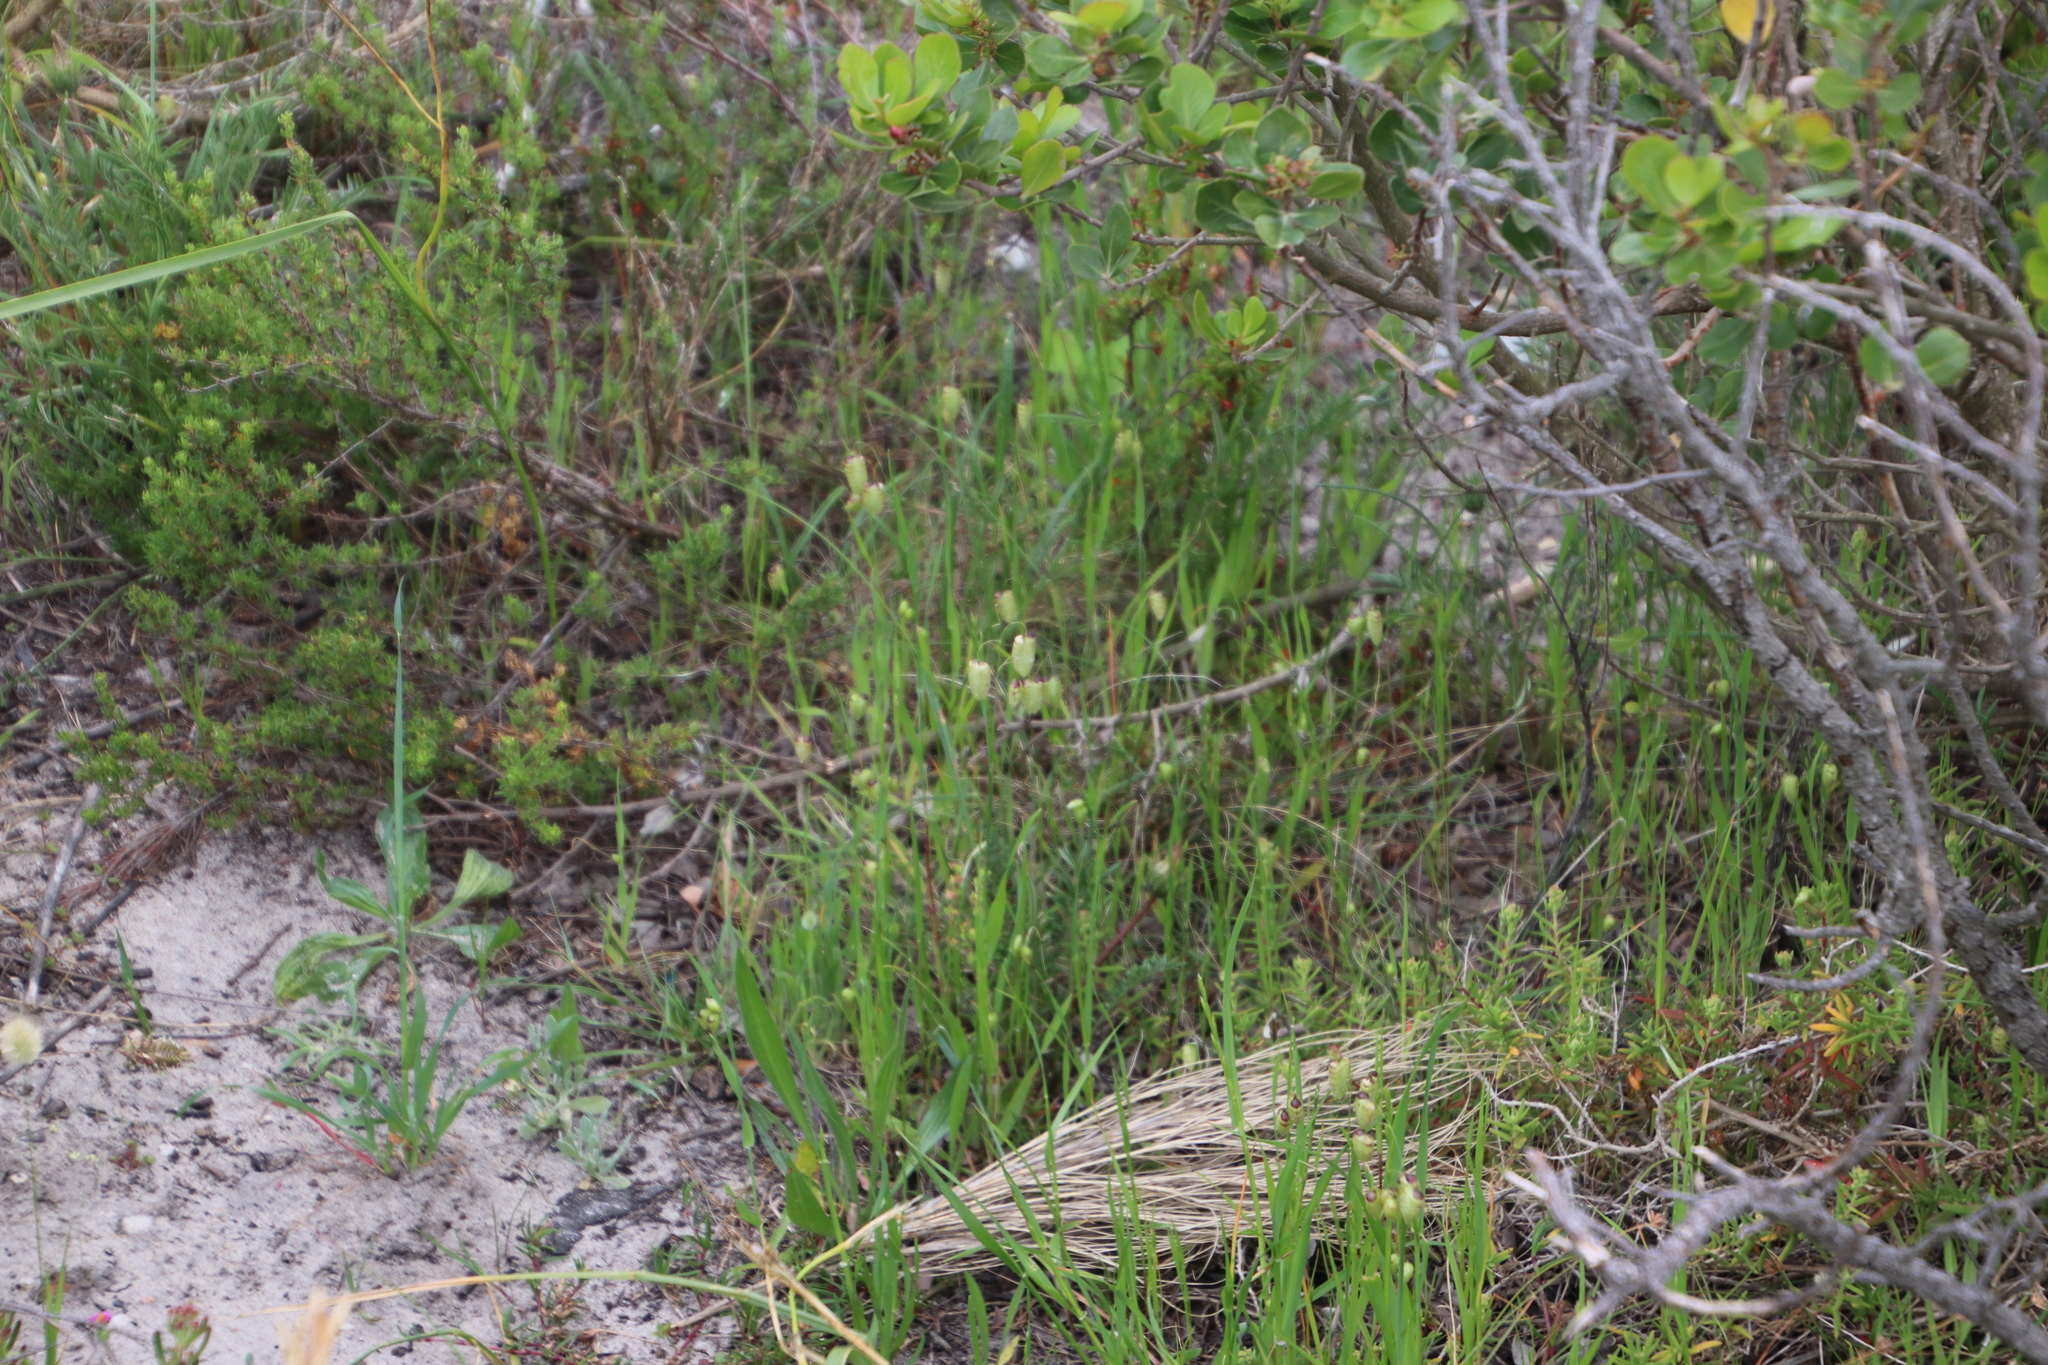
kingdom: Plantae
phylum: Tracheophyta
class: Liliopsida
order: Poales
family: Poaceae
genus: Briza
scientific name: Briza maxima
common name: Big quakinggrass
